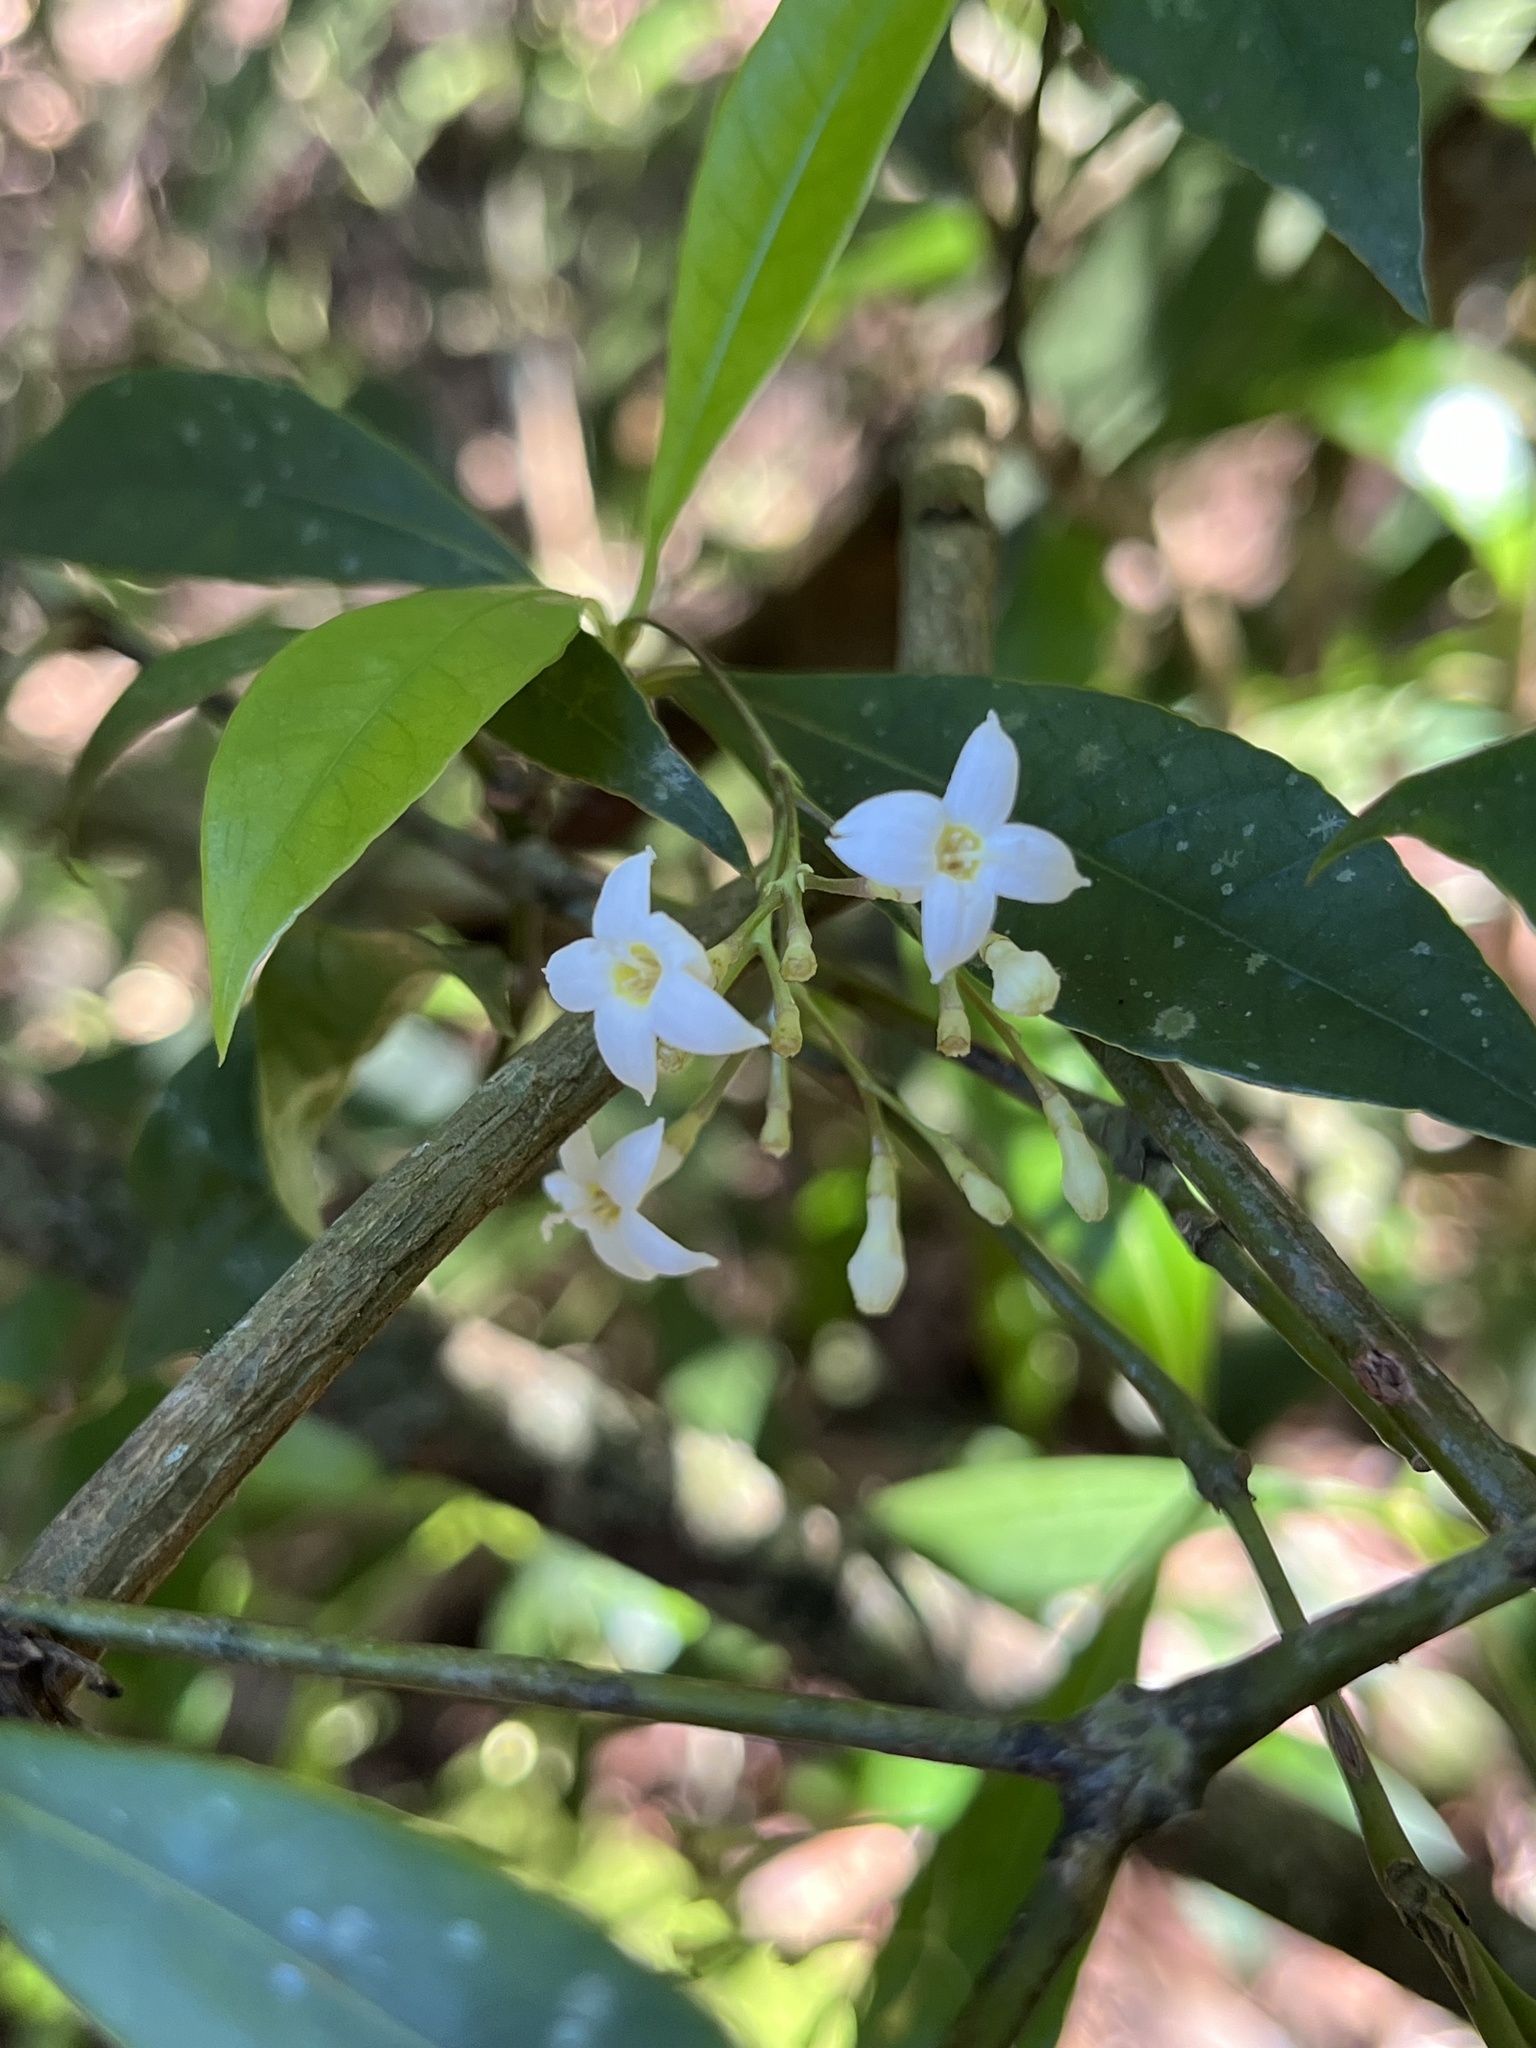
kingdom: Plantae
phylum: Tracheophyta
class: Magnoliopsida
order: Gentianales
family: Rubiaceae
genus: Psychotria
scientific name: Psychotria leiocarpa
